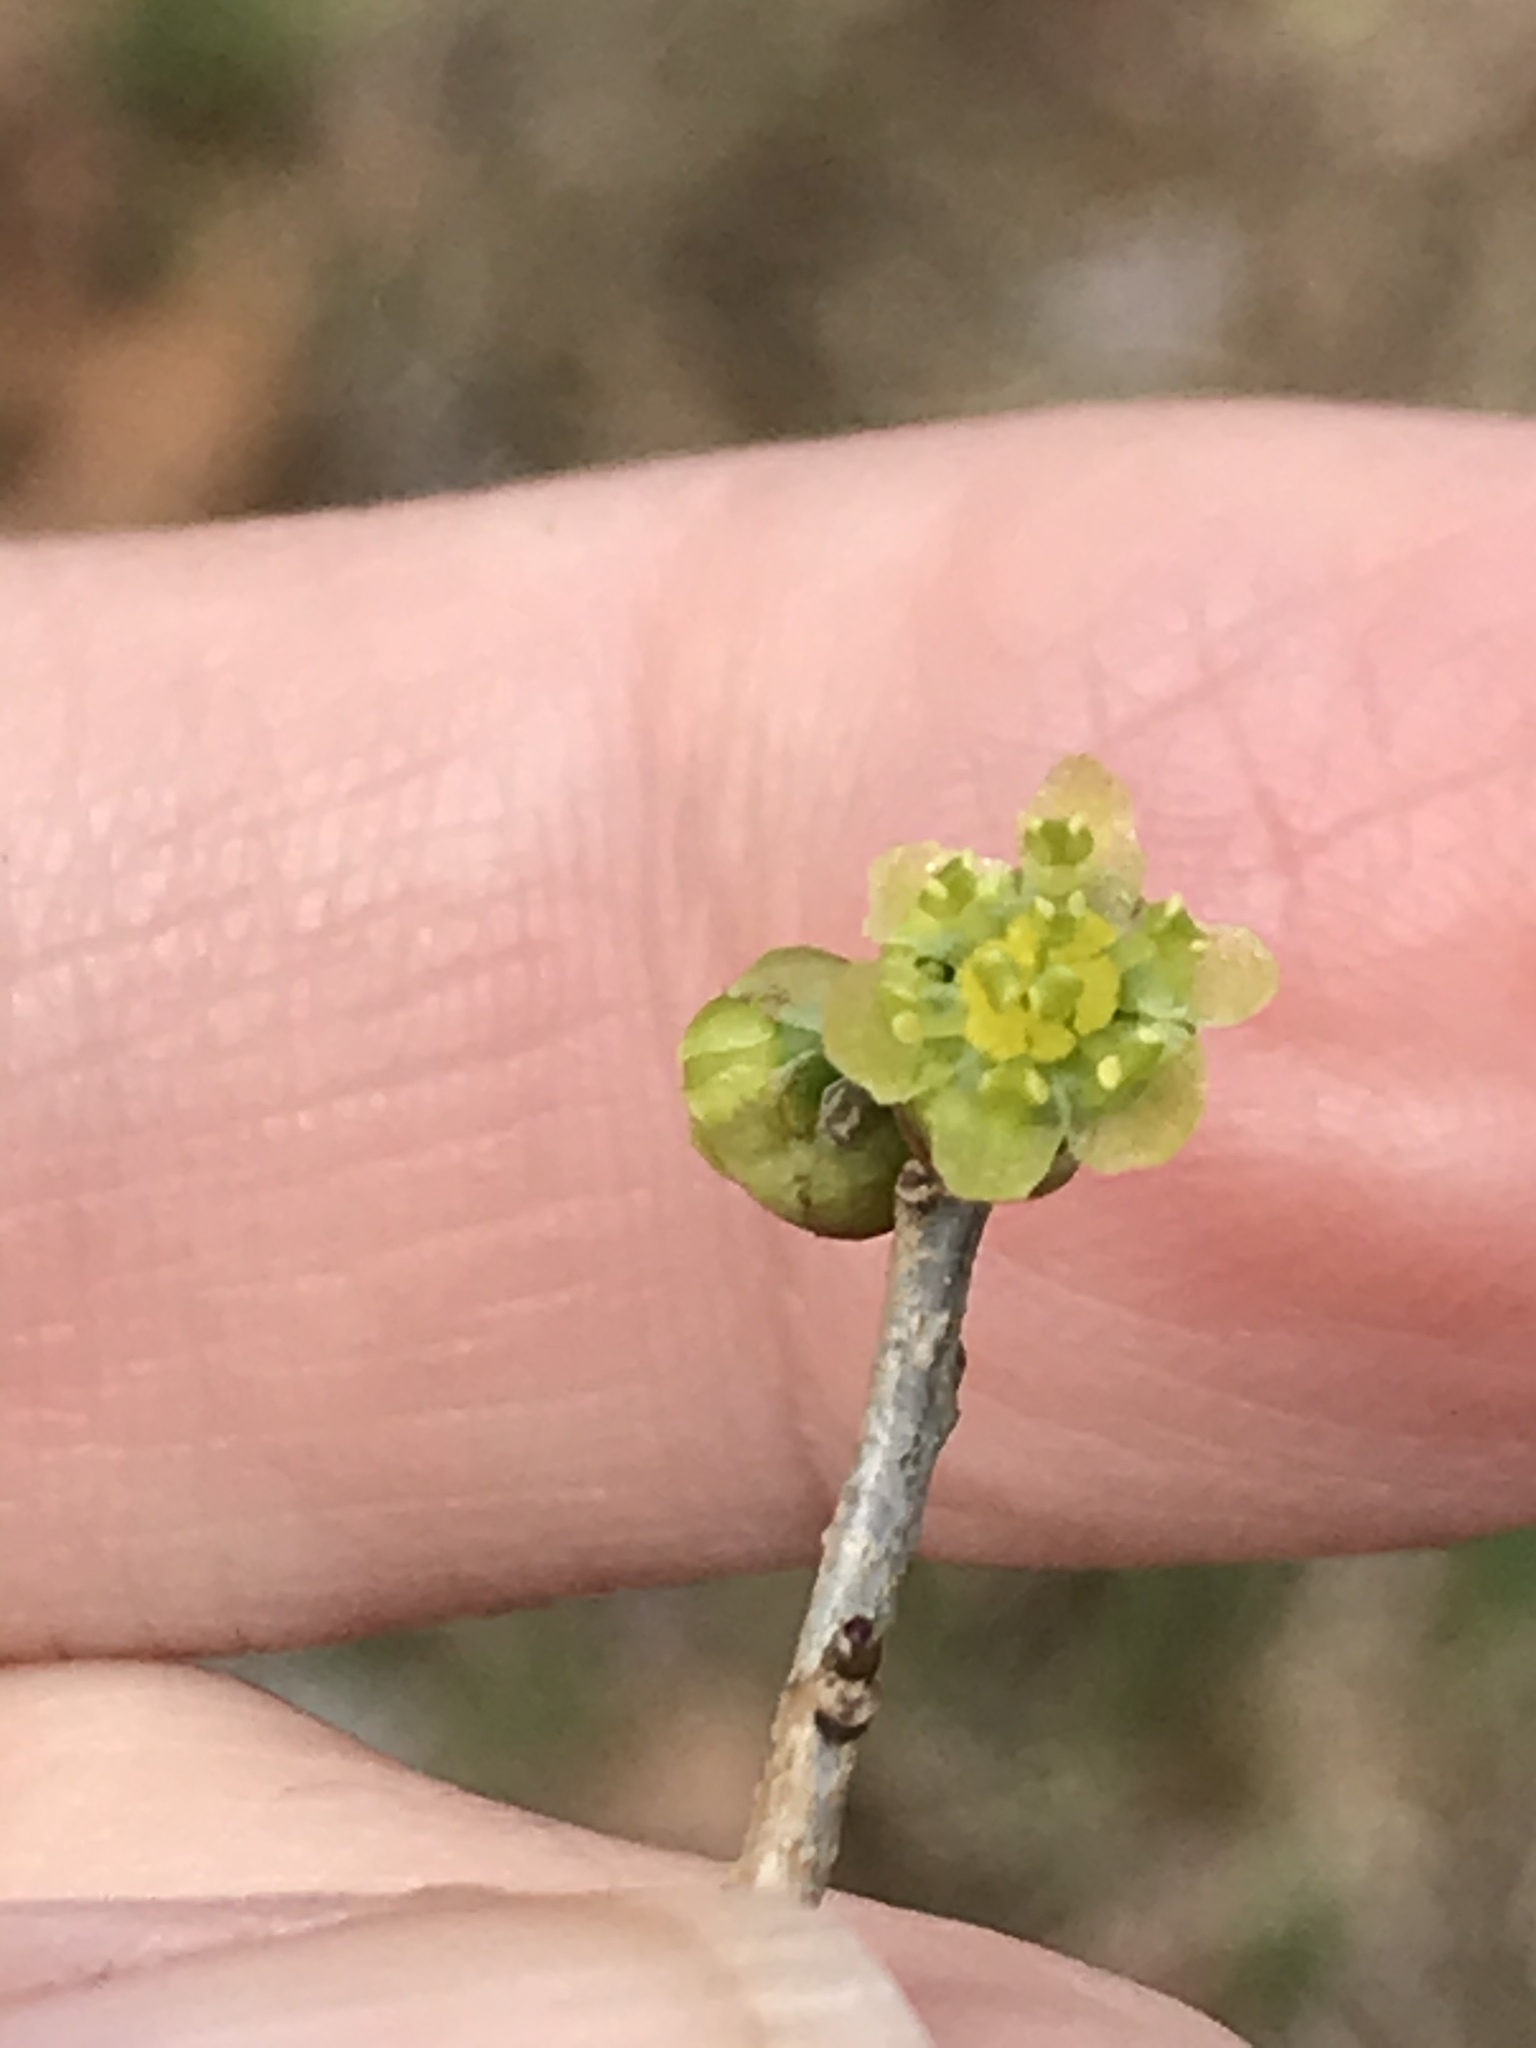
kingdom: Plantae
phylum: Tracheophyta
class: Magnoliopsida
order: Laurales
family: Lauraceae
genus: Lindera
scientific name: Lindera benzoin
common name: Spicebush
